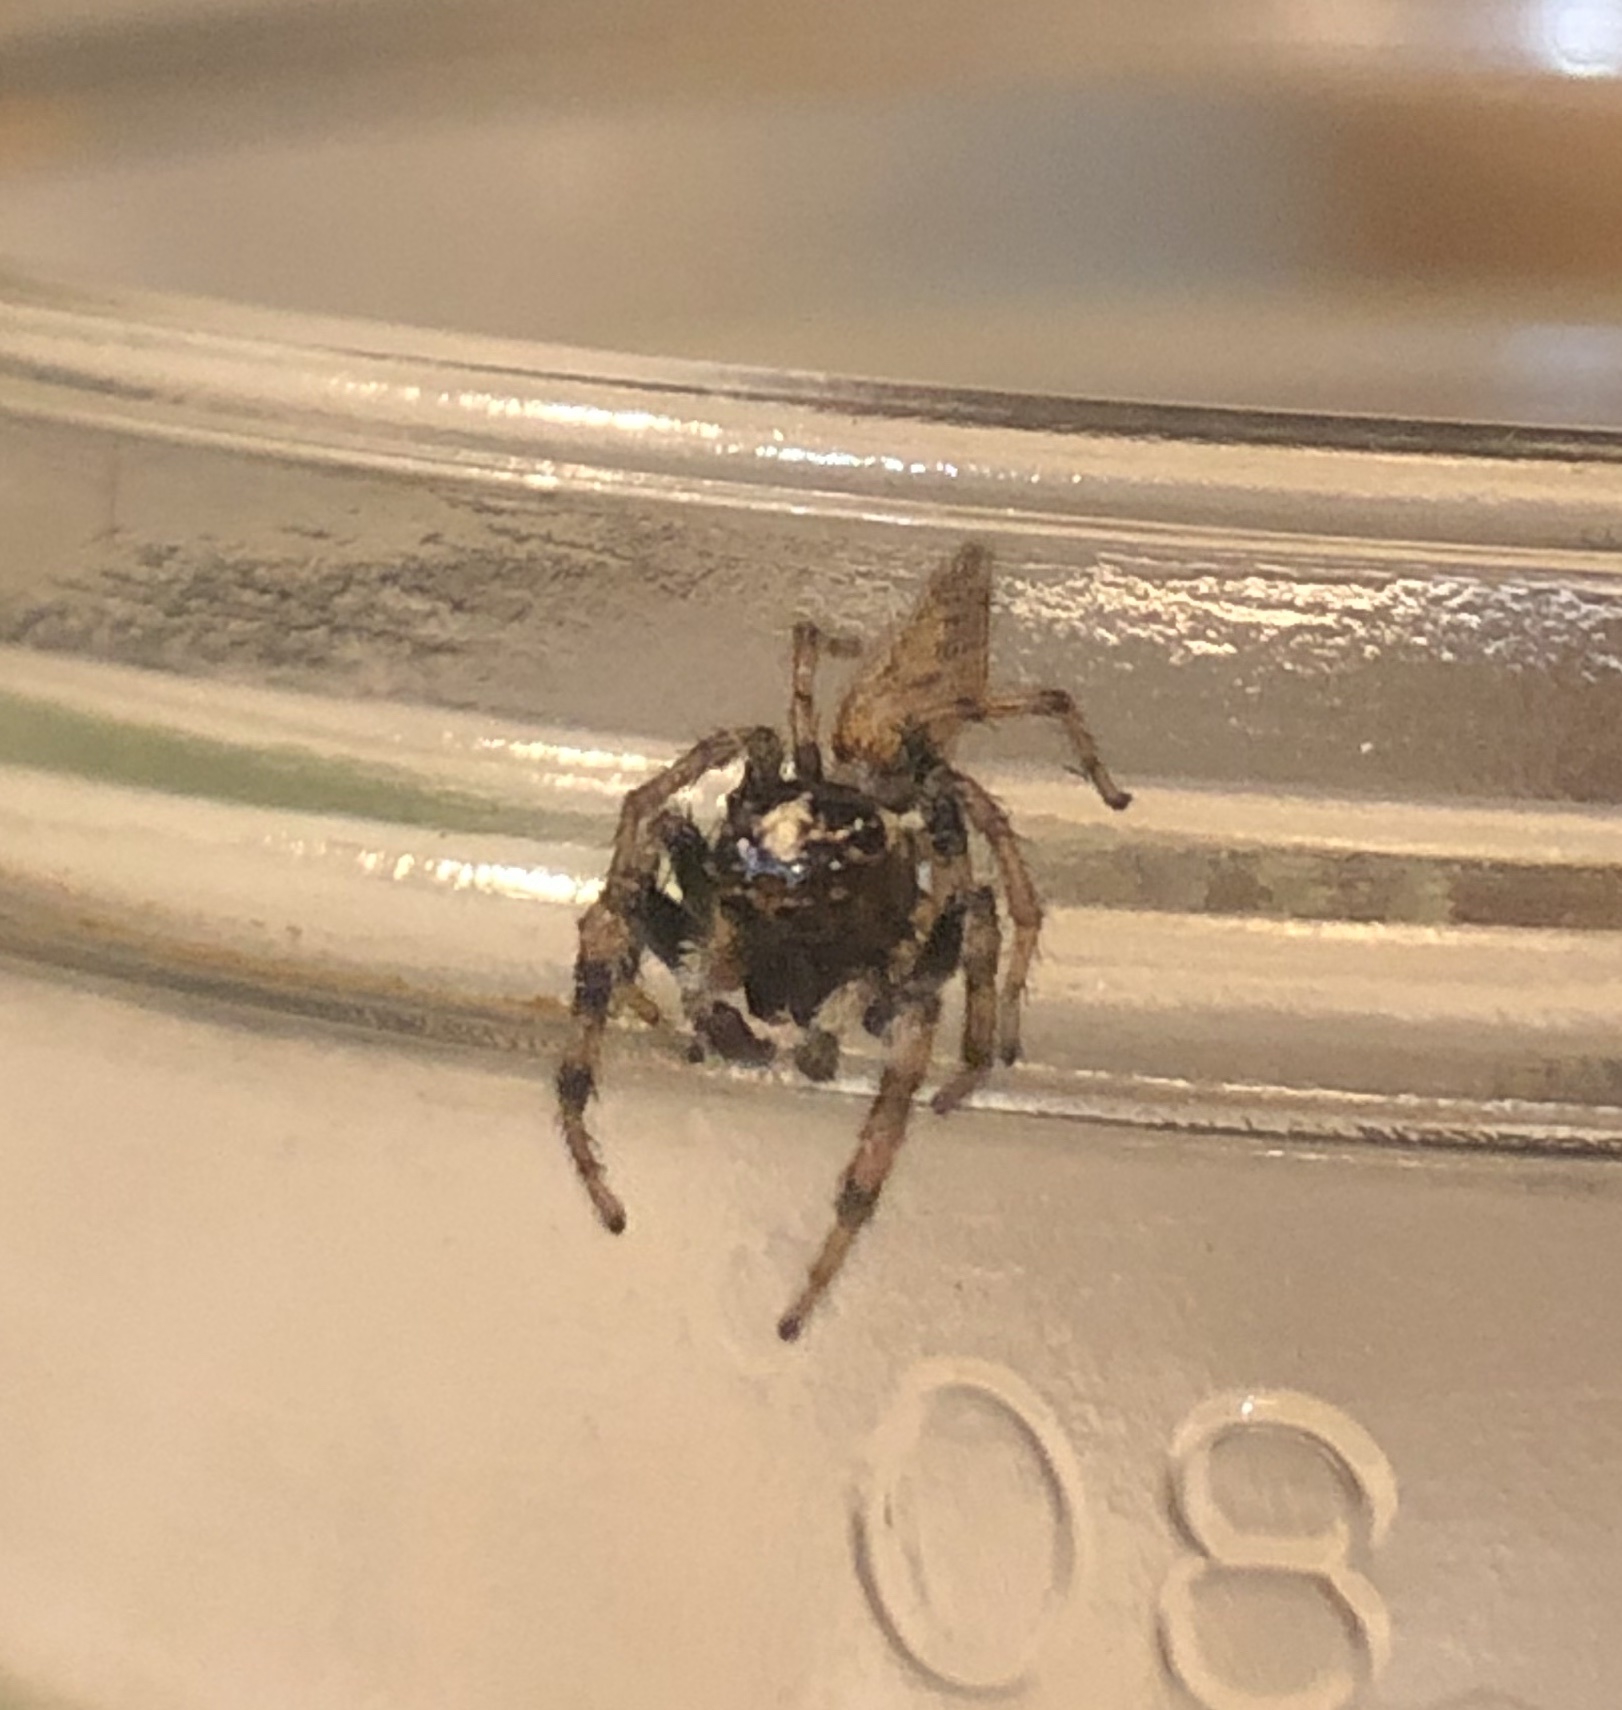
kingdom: Animalia
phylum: Arthropoda
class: Arachnida
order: Araneae
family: Salticidae
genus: Colonus
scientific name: Colonus hesperus
